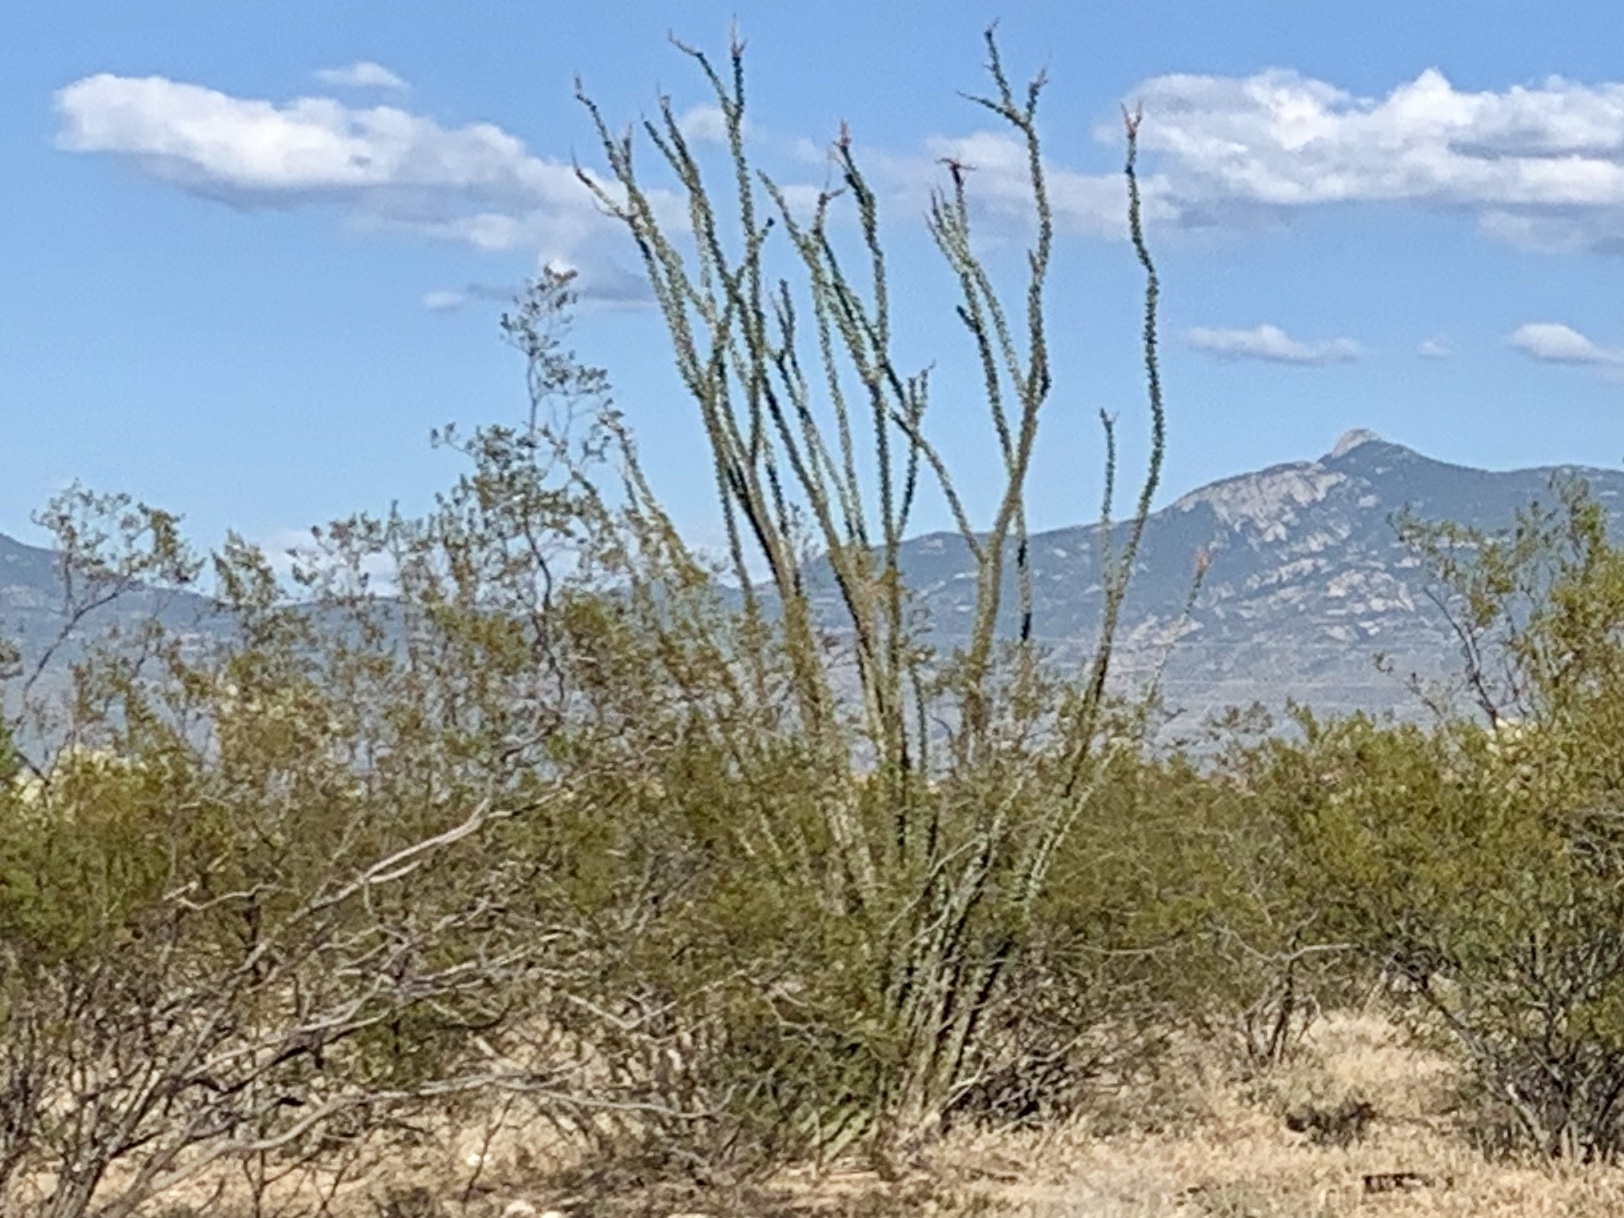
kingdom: Plantae
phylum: Tracheophyta
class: Magnoliopsida
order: Ericales
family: Fouquieriaceae
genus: Fouquieria
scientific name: Fouquieria splendens
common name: Vine-cactus
